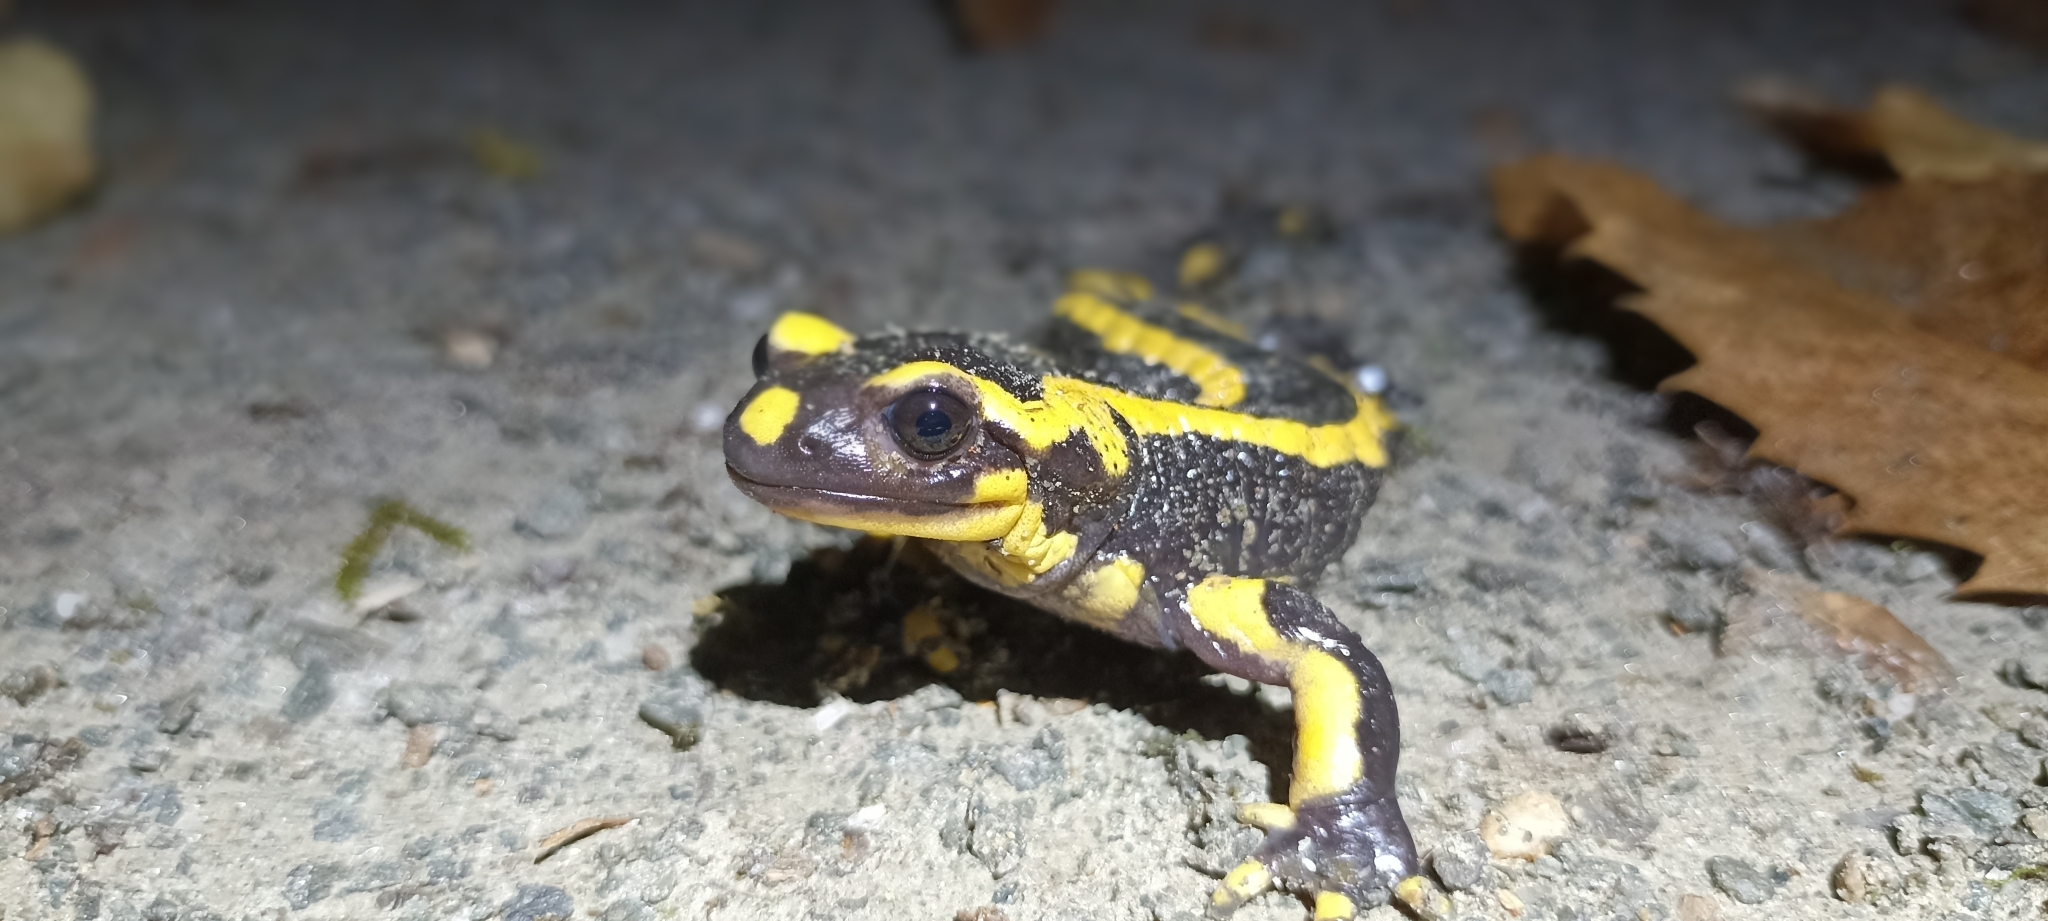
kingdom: Animalia
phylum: Chordata
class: Amphibia
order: Caudata
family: Salamandridae
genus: Salamandra
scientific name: Salamandra salamandra
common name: Fire salamander
